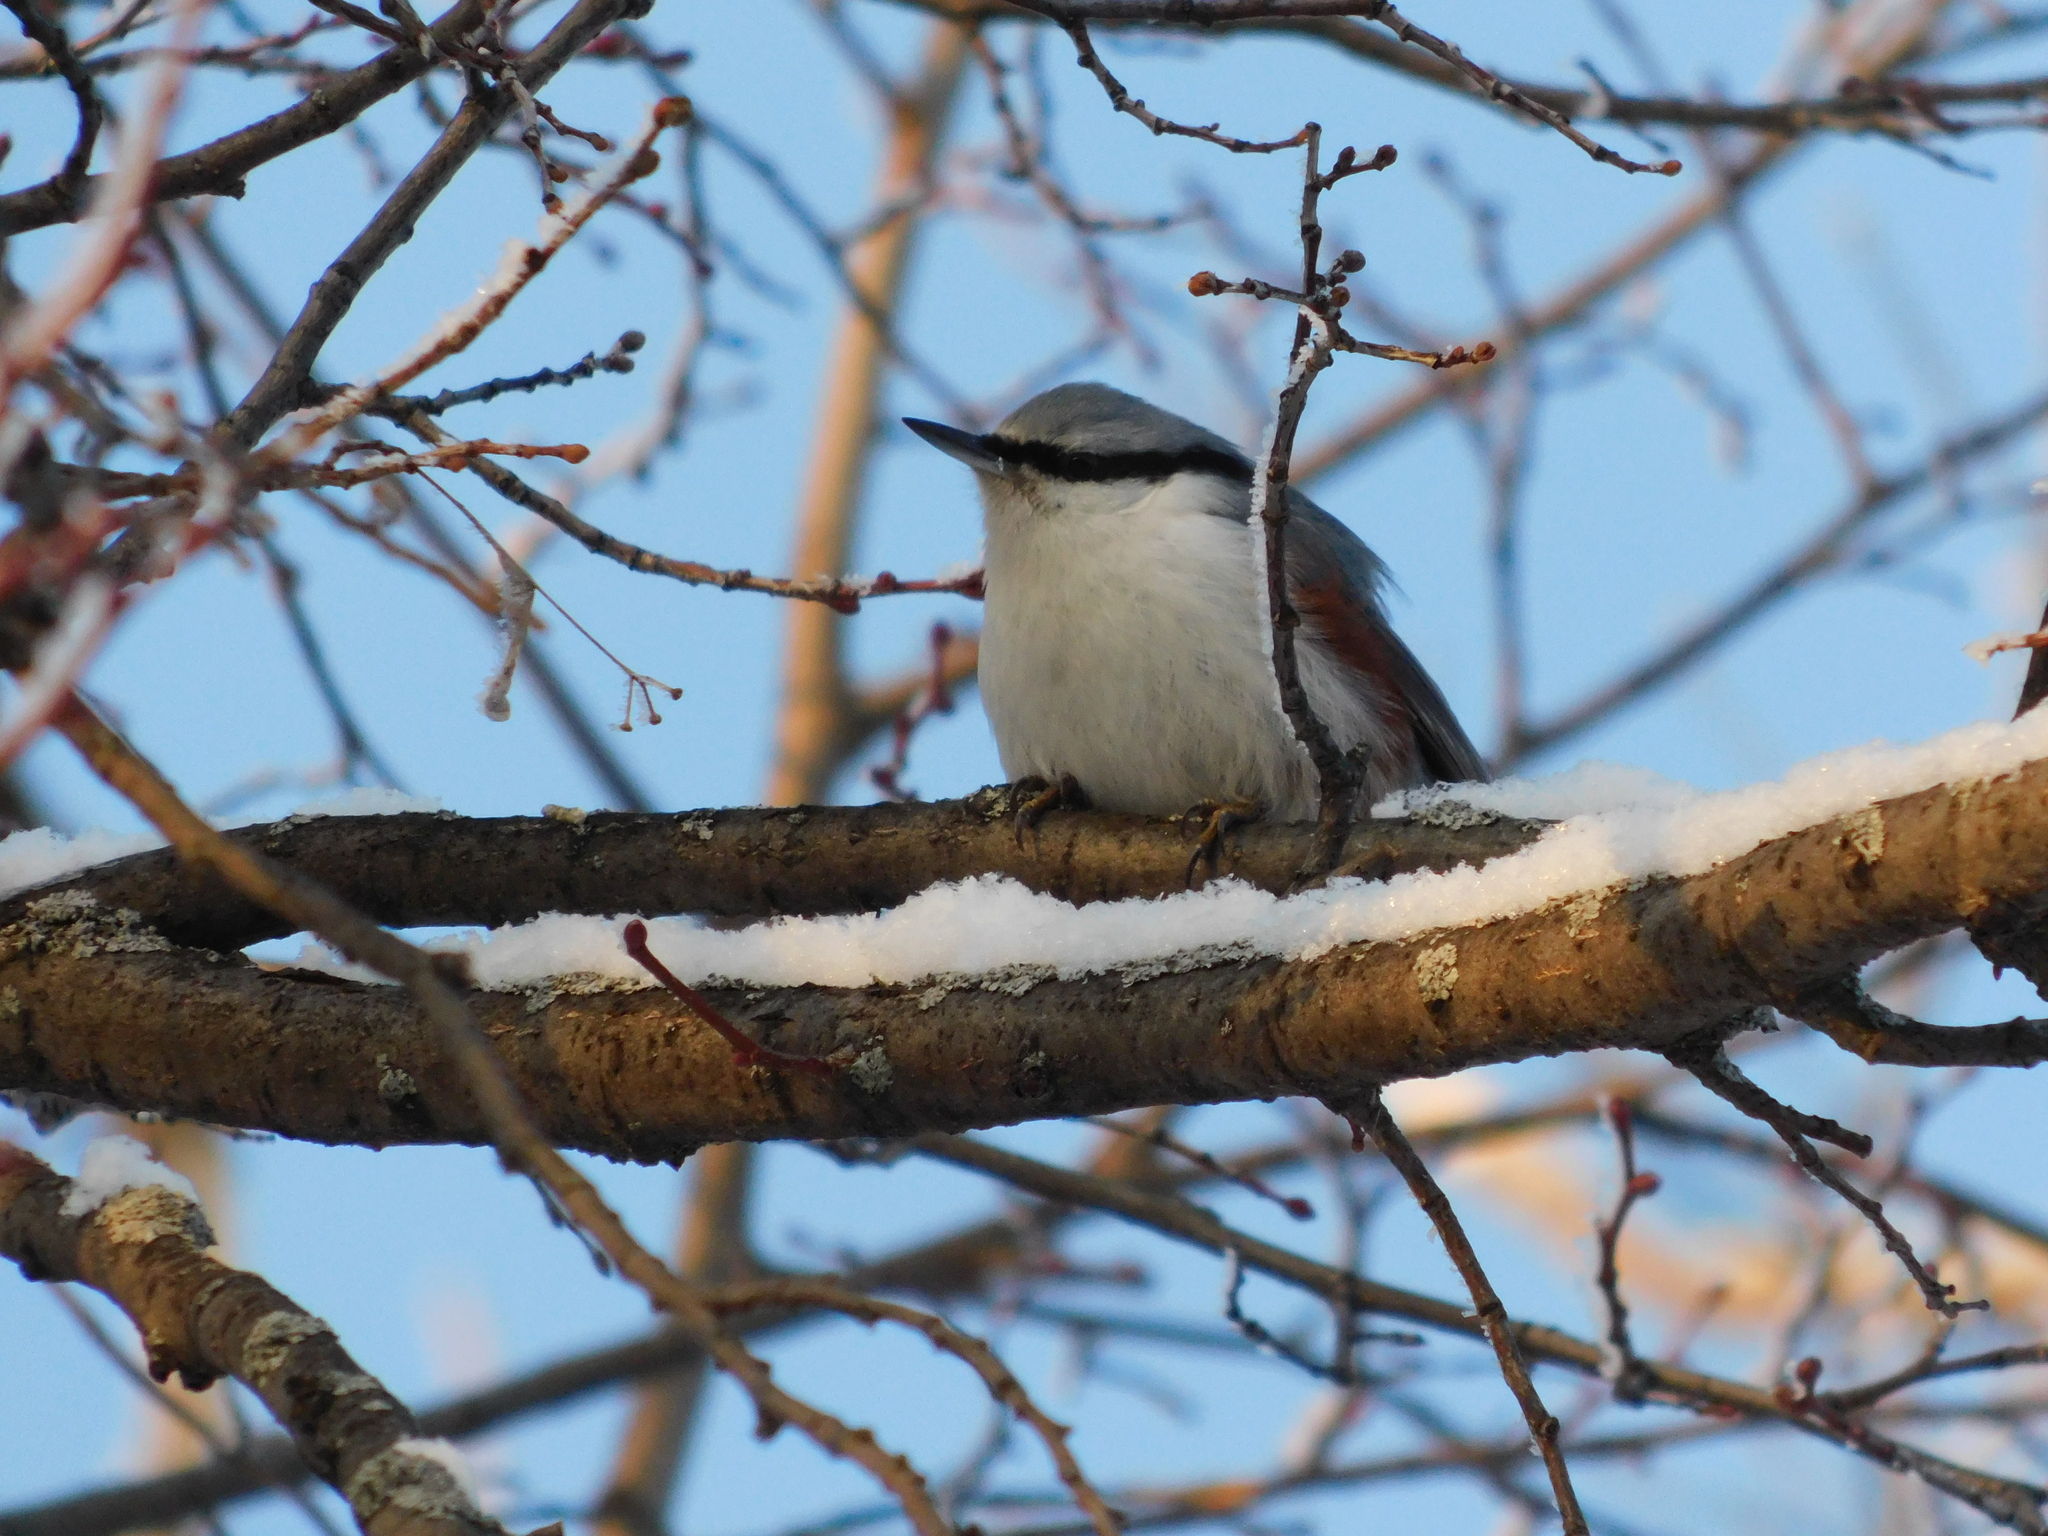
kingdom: Animalia
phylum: Chordata
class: Aves
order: Passeriformes
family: Sittidae
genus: Sitta
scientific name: Sitta europaea
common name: Eurasian nuthatch
